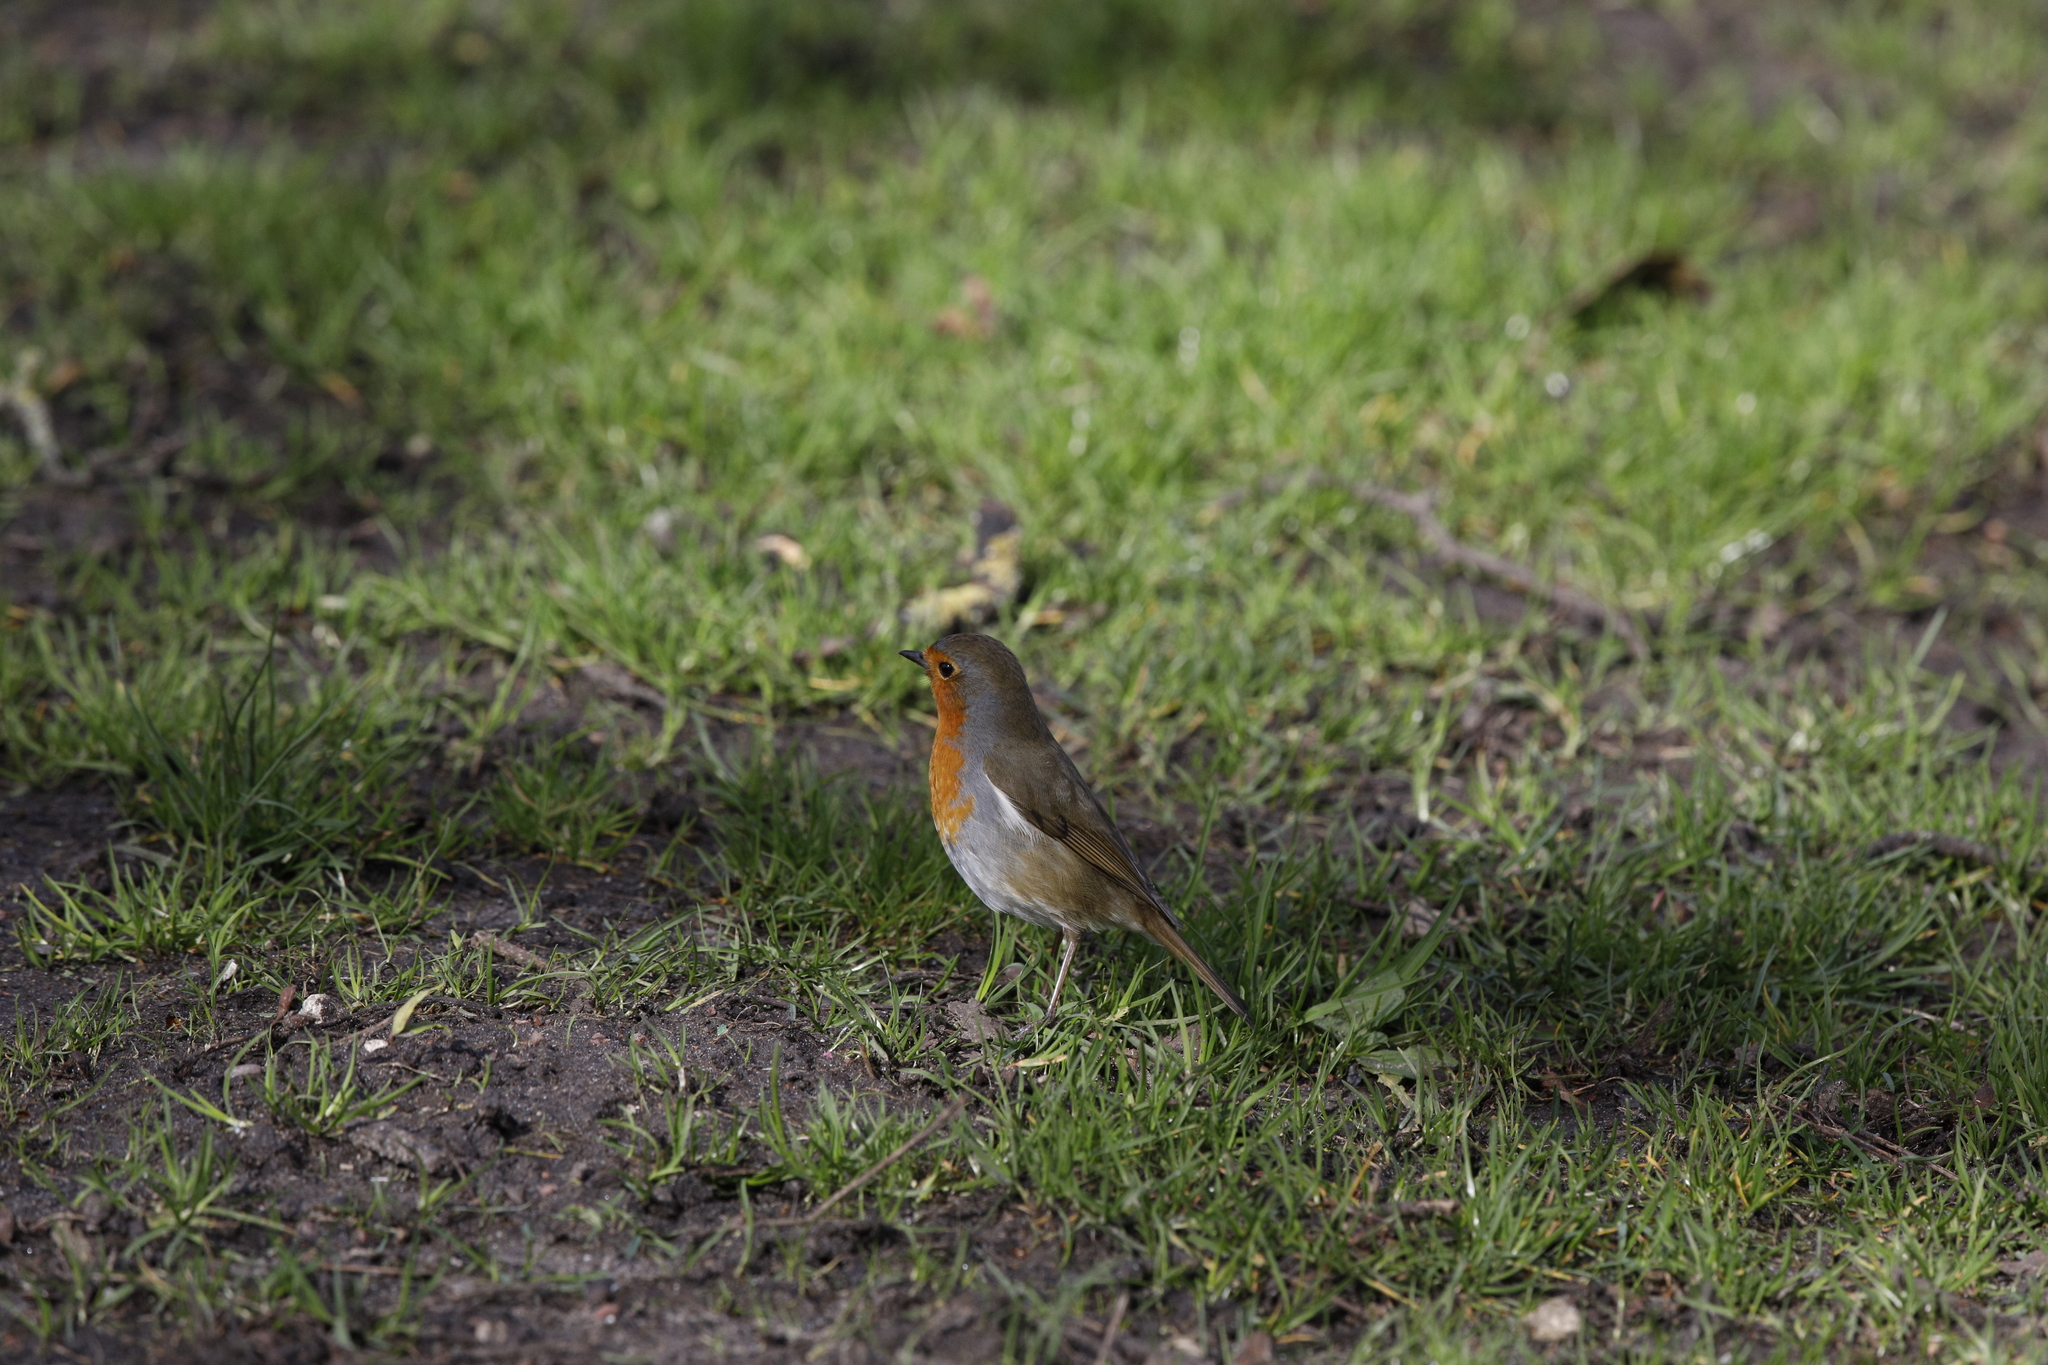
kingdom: Animalia
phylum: Chordata
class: Aves
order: Passeriformes
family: Muscicapidae
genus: Erithacus
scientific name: Erithacus rubecula
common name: European robin
